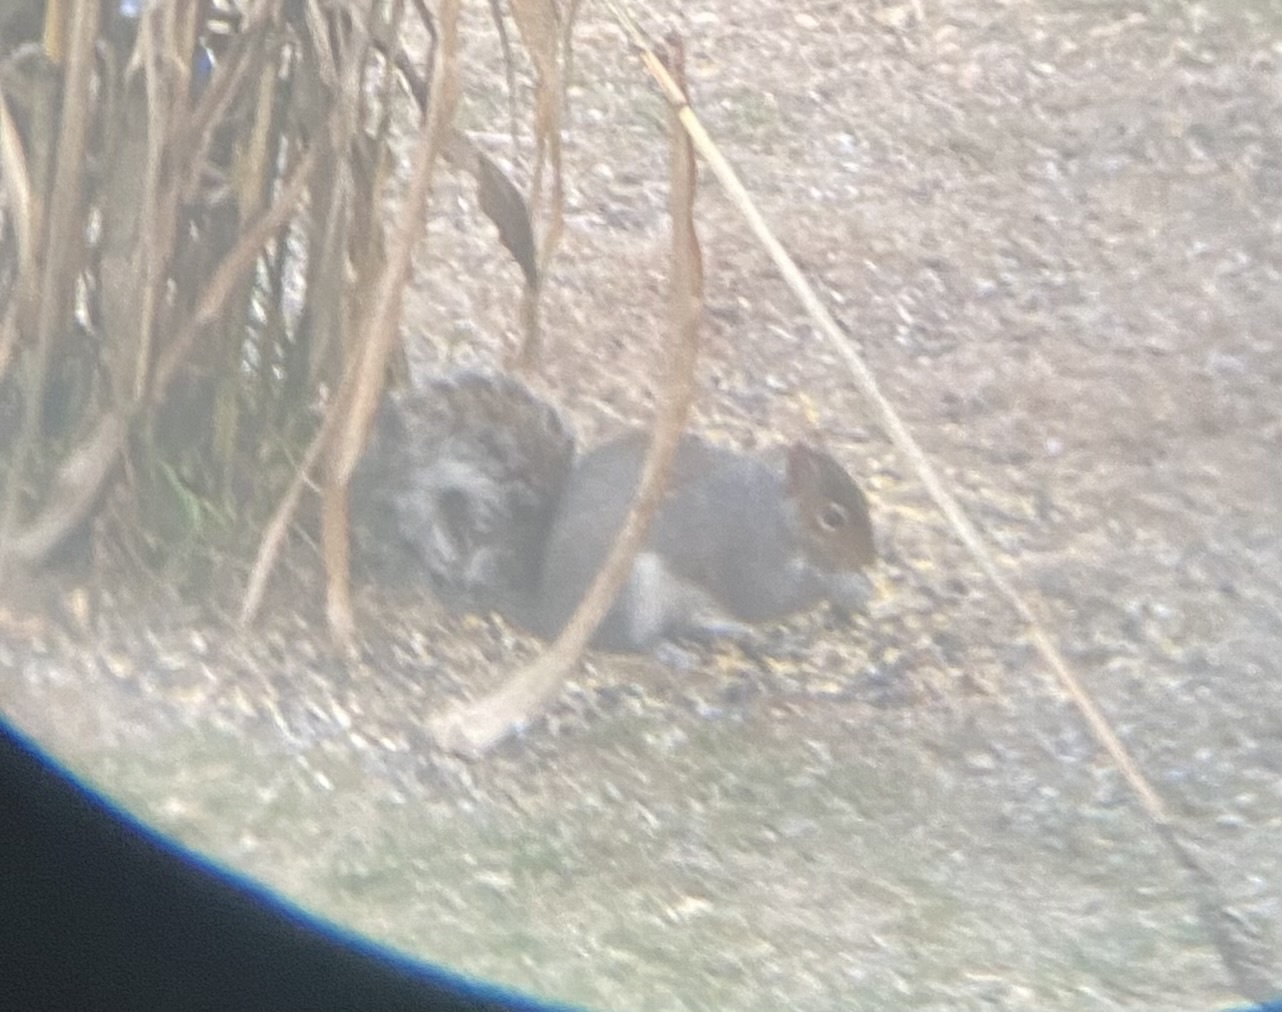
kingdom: Animalia
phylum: Chordata
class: Mammalia
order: Rodentia
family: Sciuridae
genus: Sciurus
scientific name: Sciurus carolinensis
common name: Eastern gray squirrel
